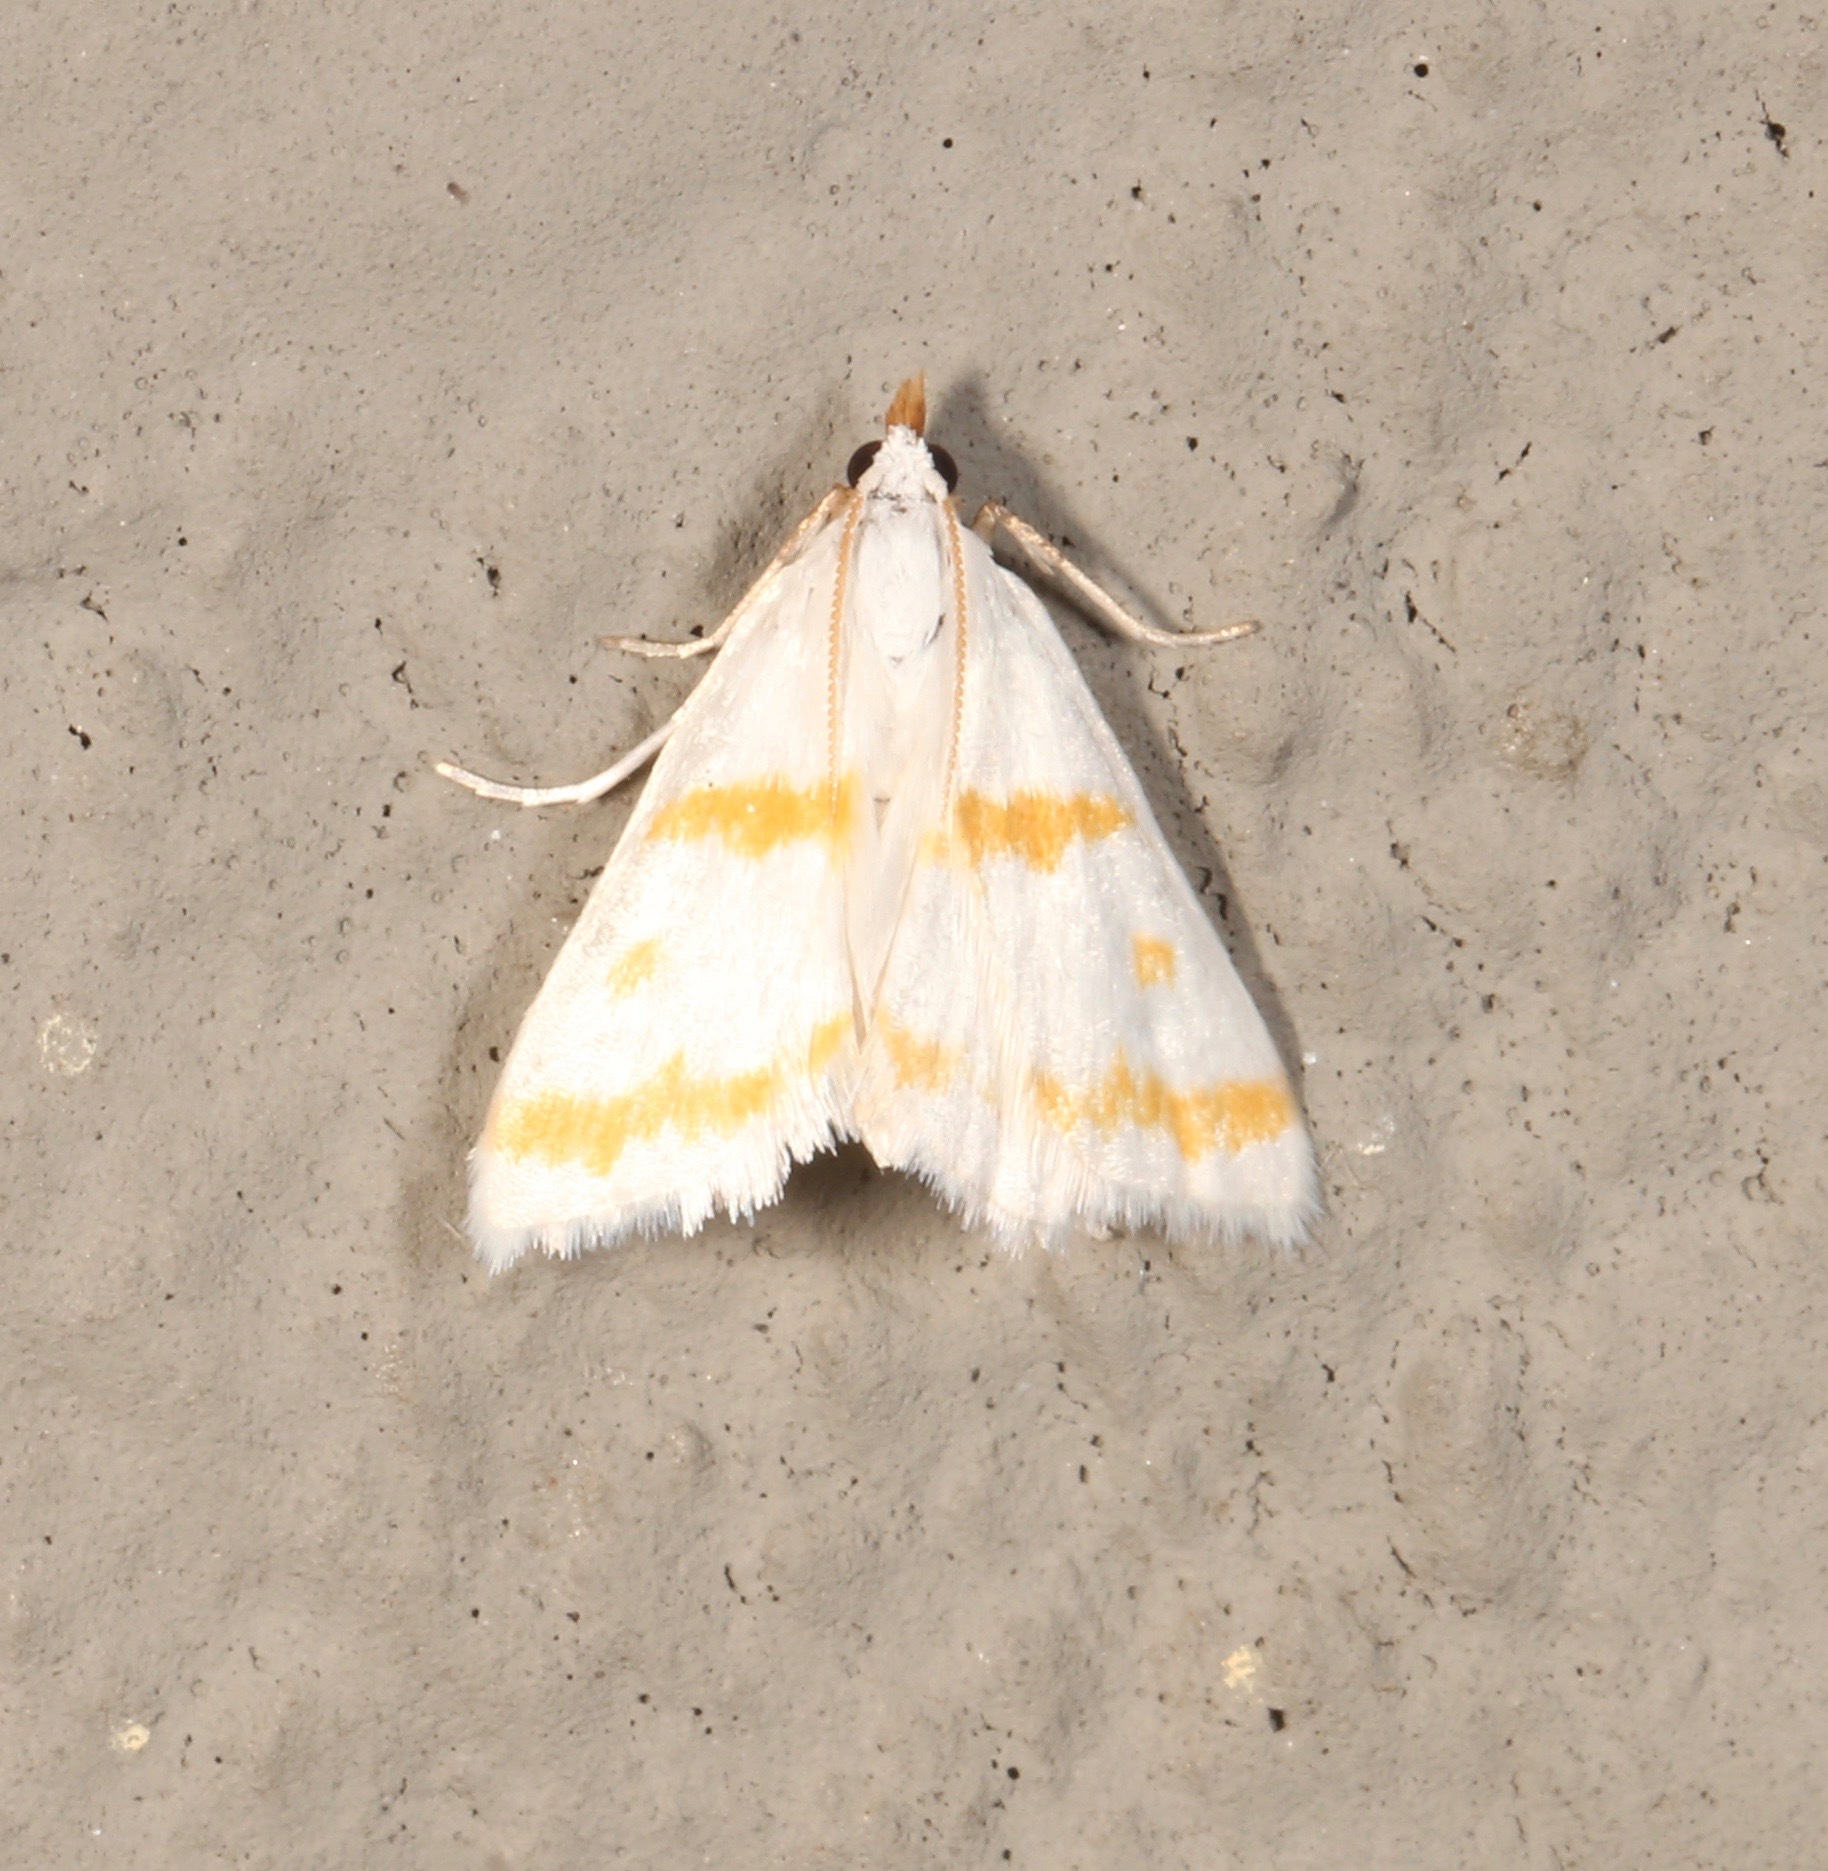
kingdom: Animalia
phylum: Arthropoda
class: Insecta
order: Lepidoptera
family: Crambidae
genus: Patissa
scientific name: Patissa xantholeucalis
